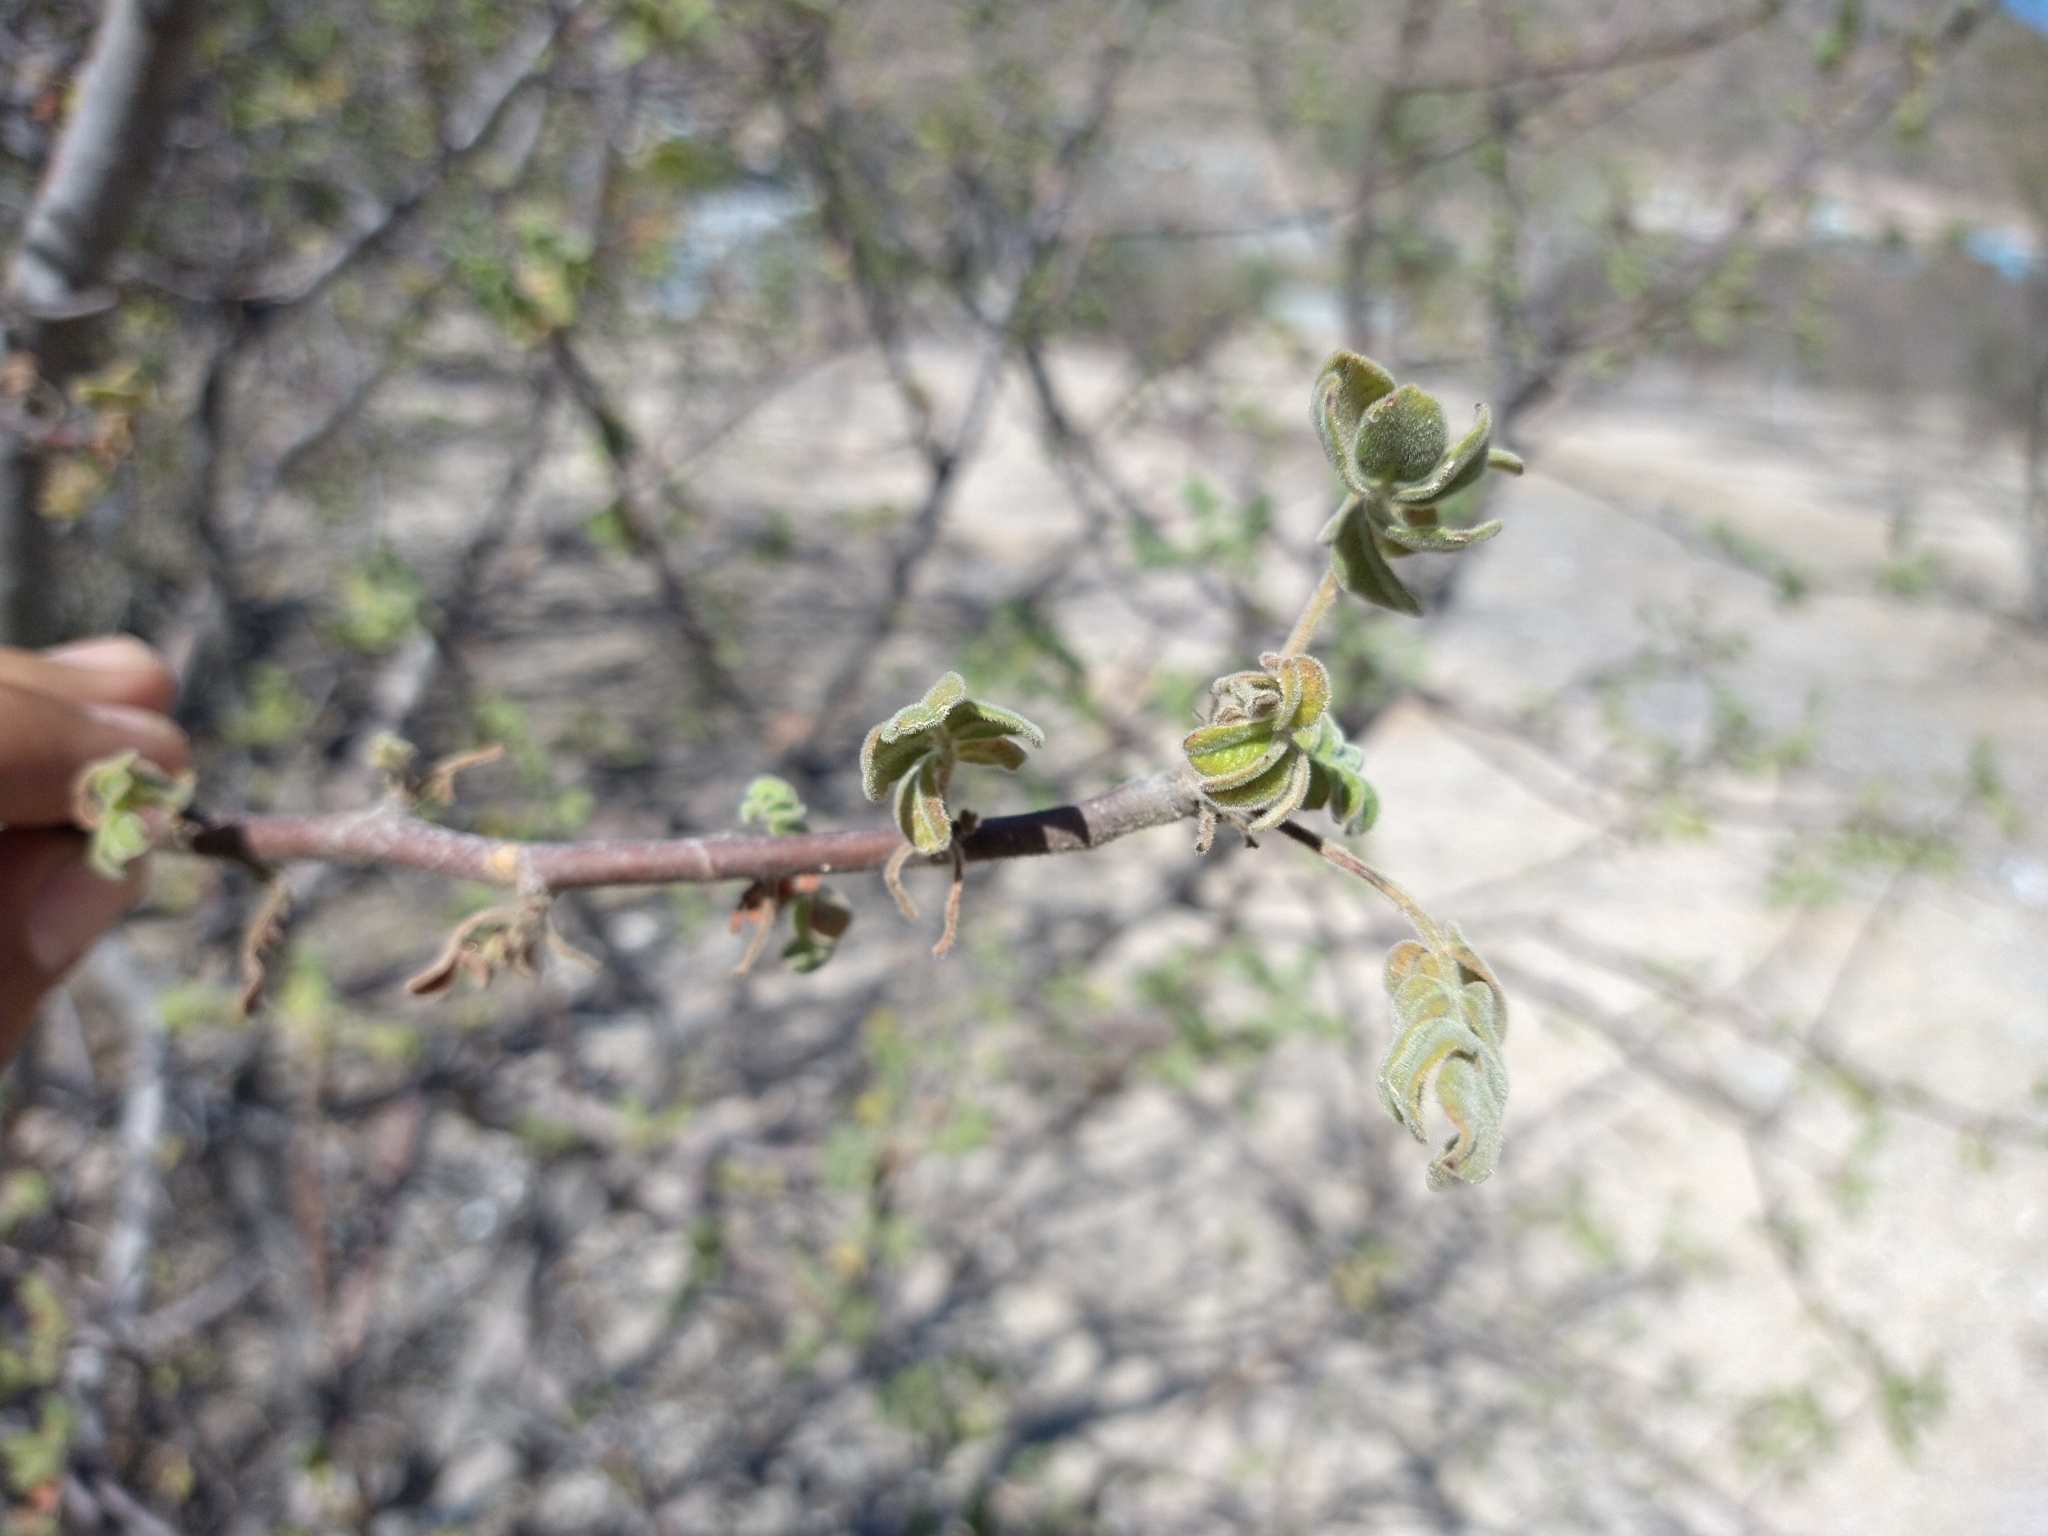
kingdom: Plantae
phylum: Tracheophyta
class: Magnoliopsida
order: Sapindales
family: Anacardiaceae
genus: Cyrtocarpa
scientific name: Cyrtocarpa edulis
